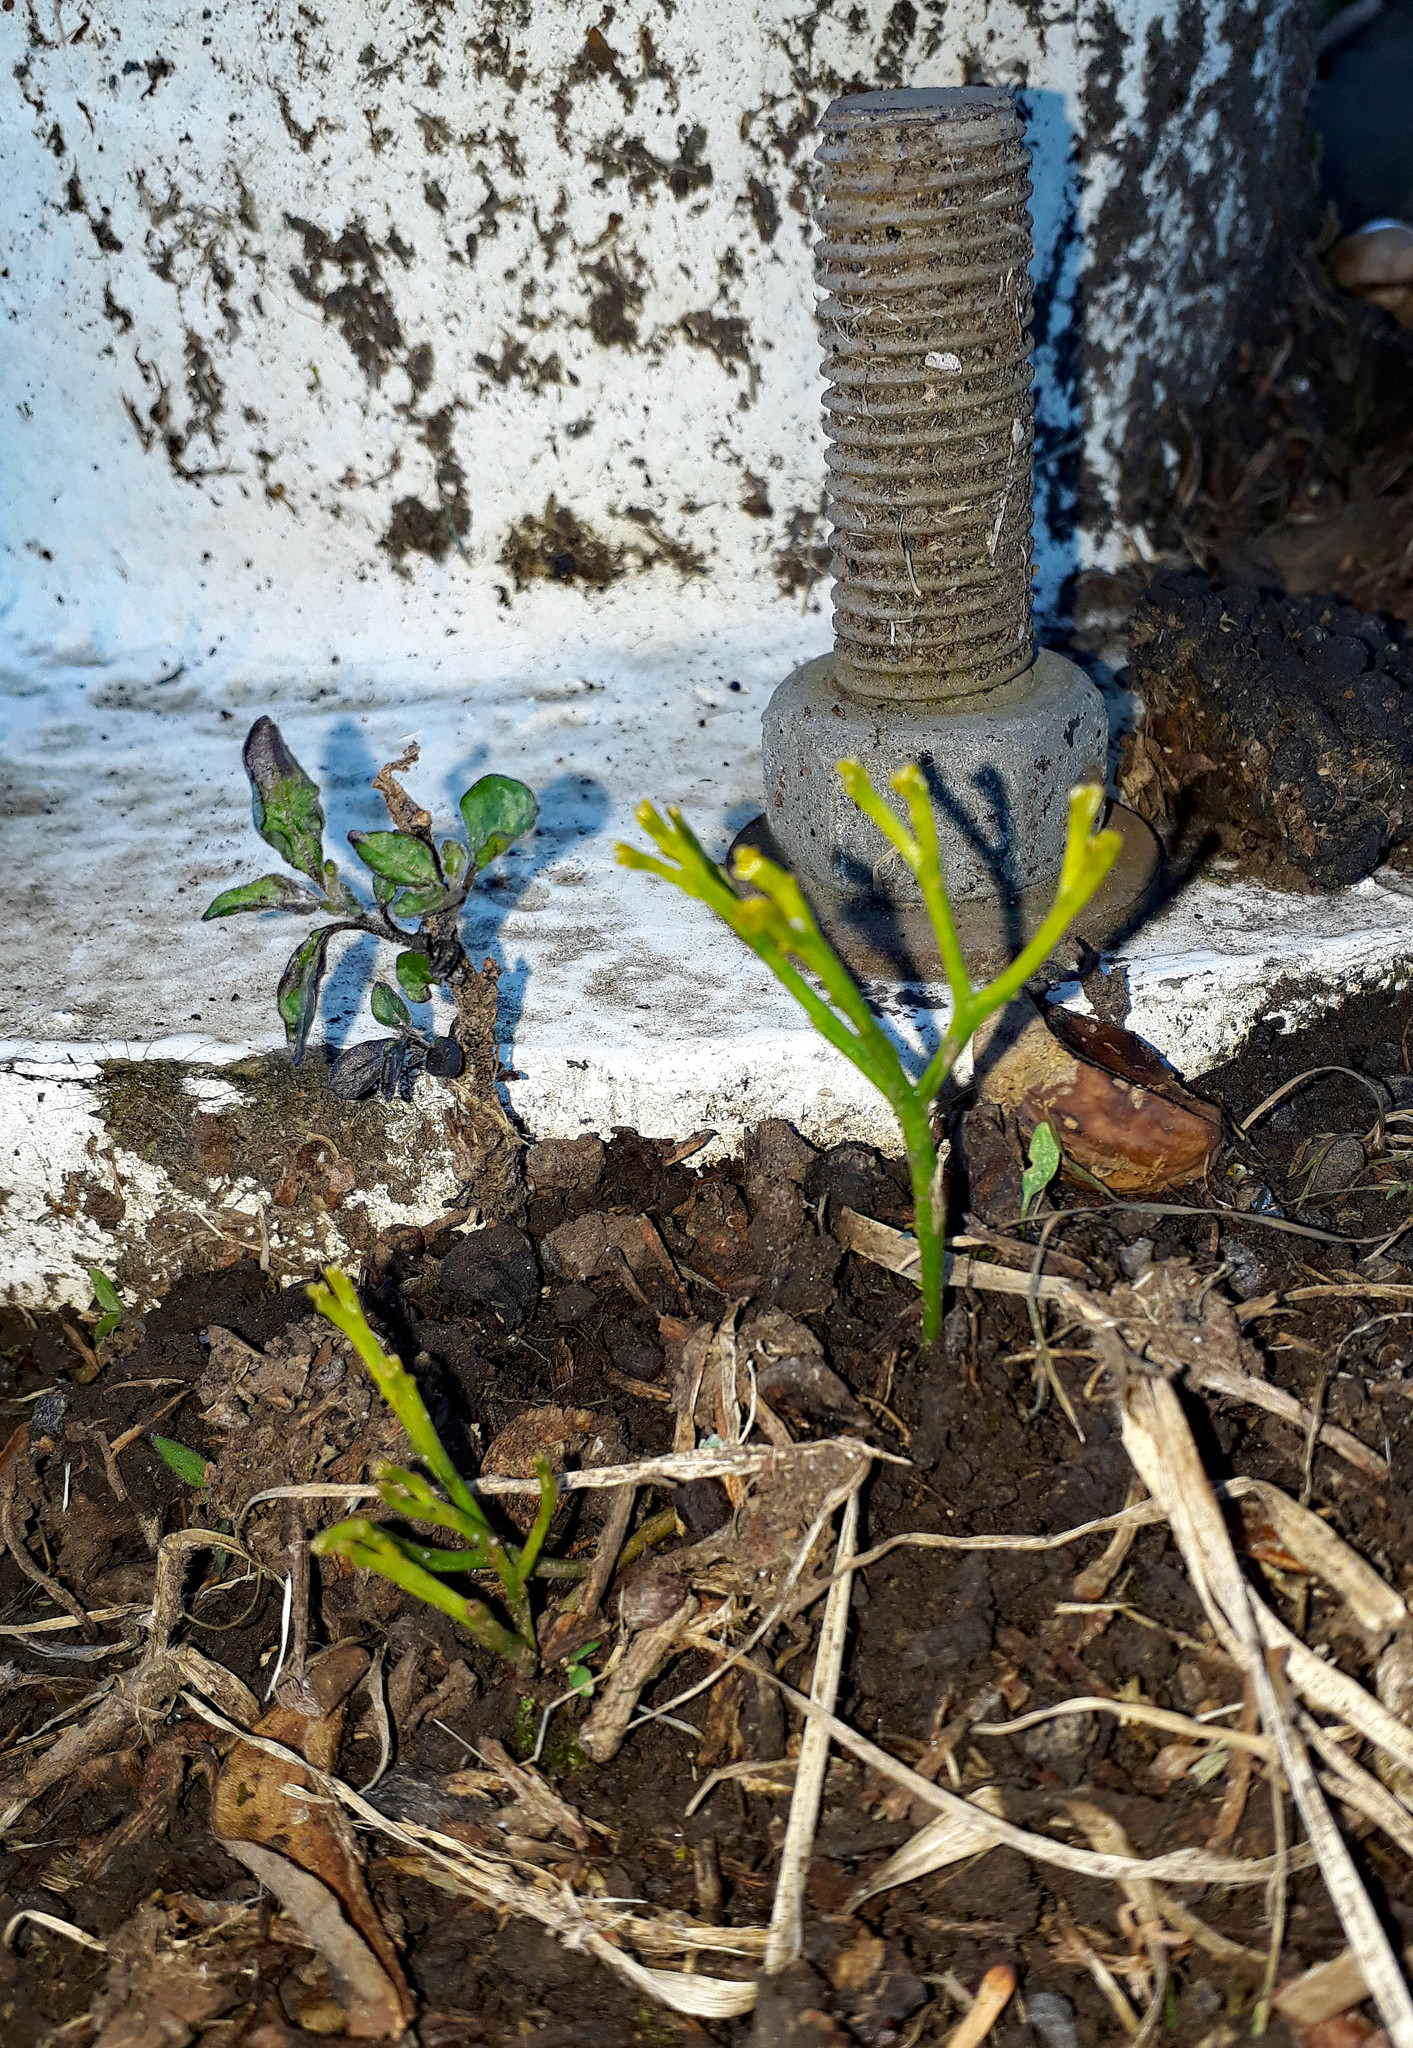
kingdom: Plantae
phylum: Tracheophyta
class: Polypodiopsida
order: Psilotales
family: Psilotaceae
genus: Psilotum
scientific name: Psilotum nudum
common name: Skeleton fork fern
